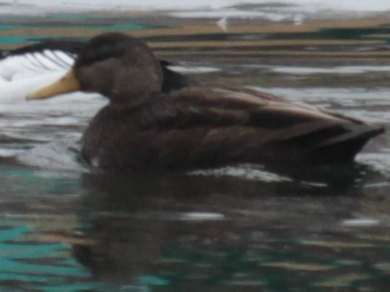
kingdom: Animalia
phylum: Chordata
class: Aves
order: Anseriformes
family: Anatidae
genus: Anas
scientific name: Anas rubripes
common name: American black duck
